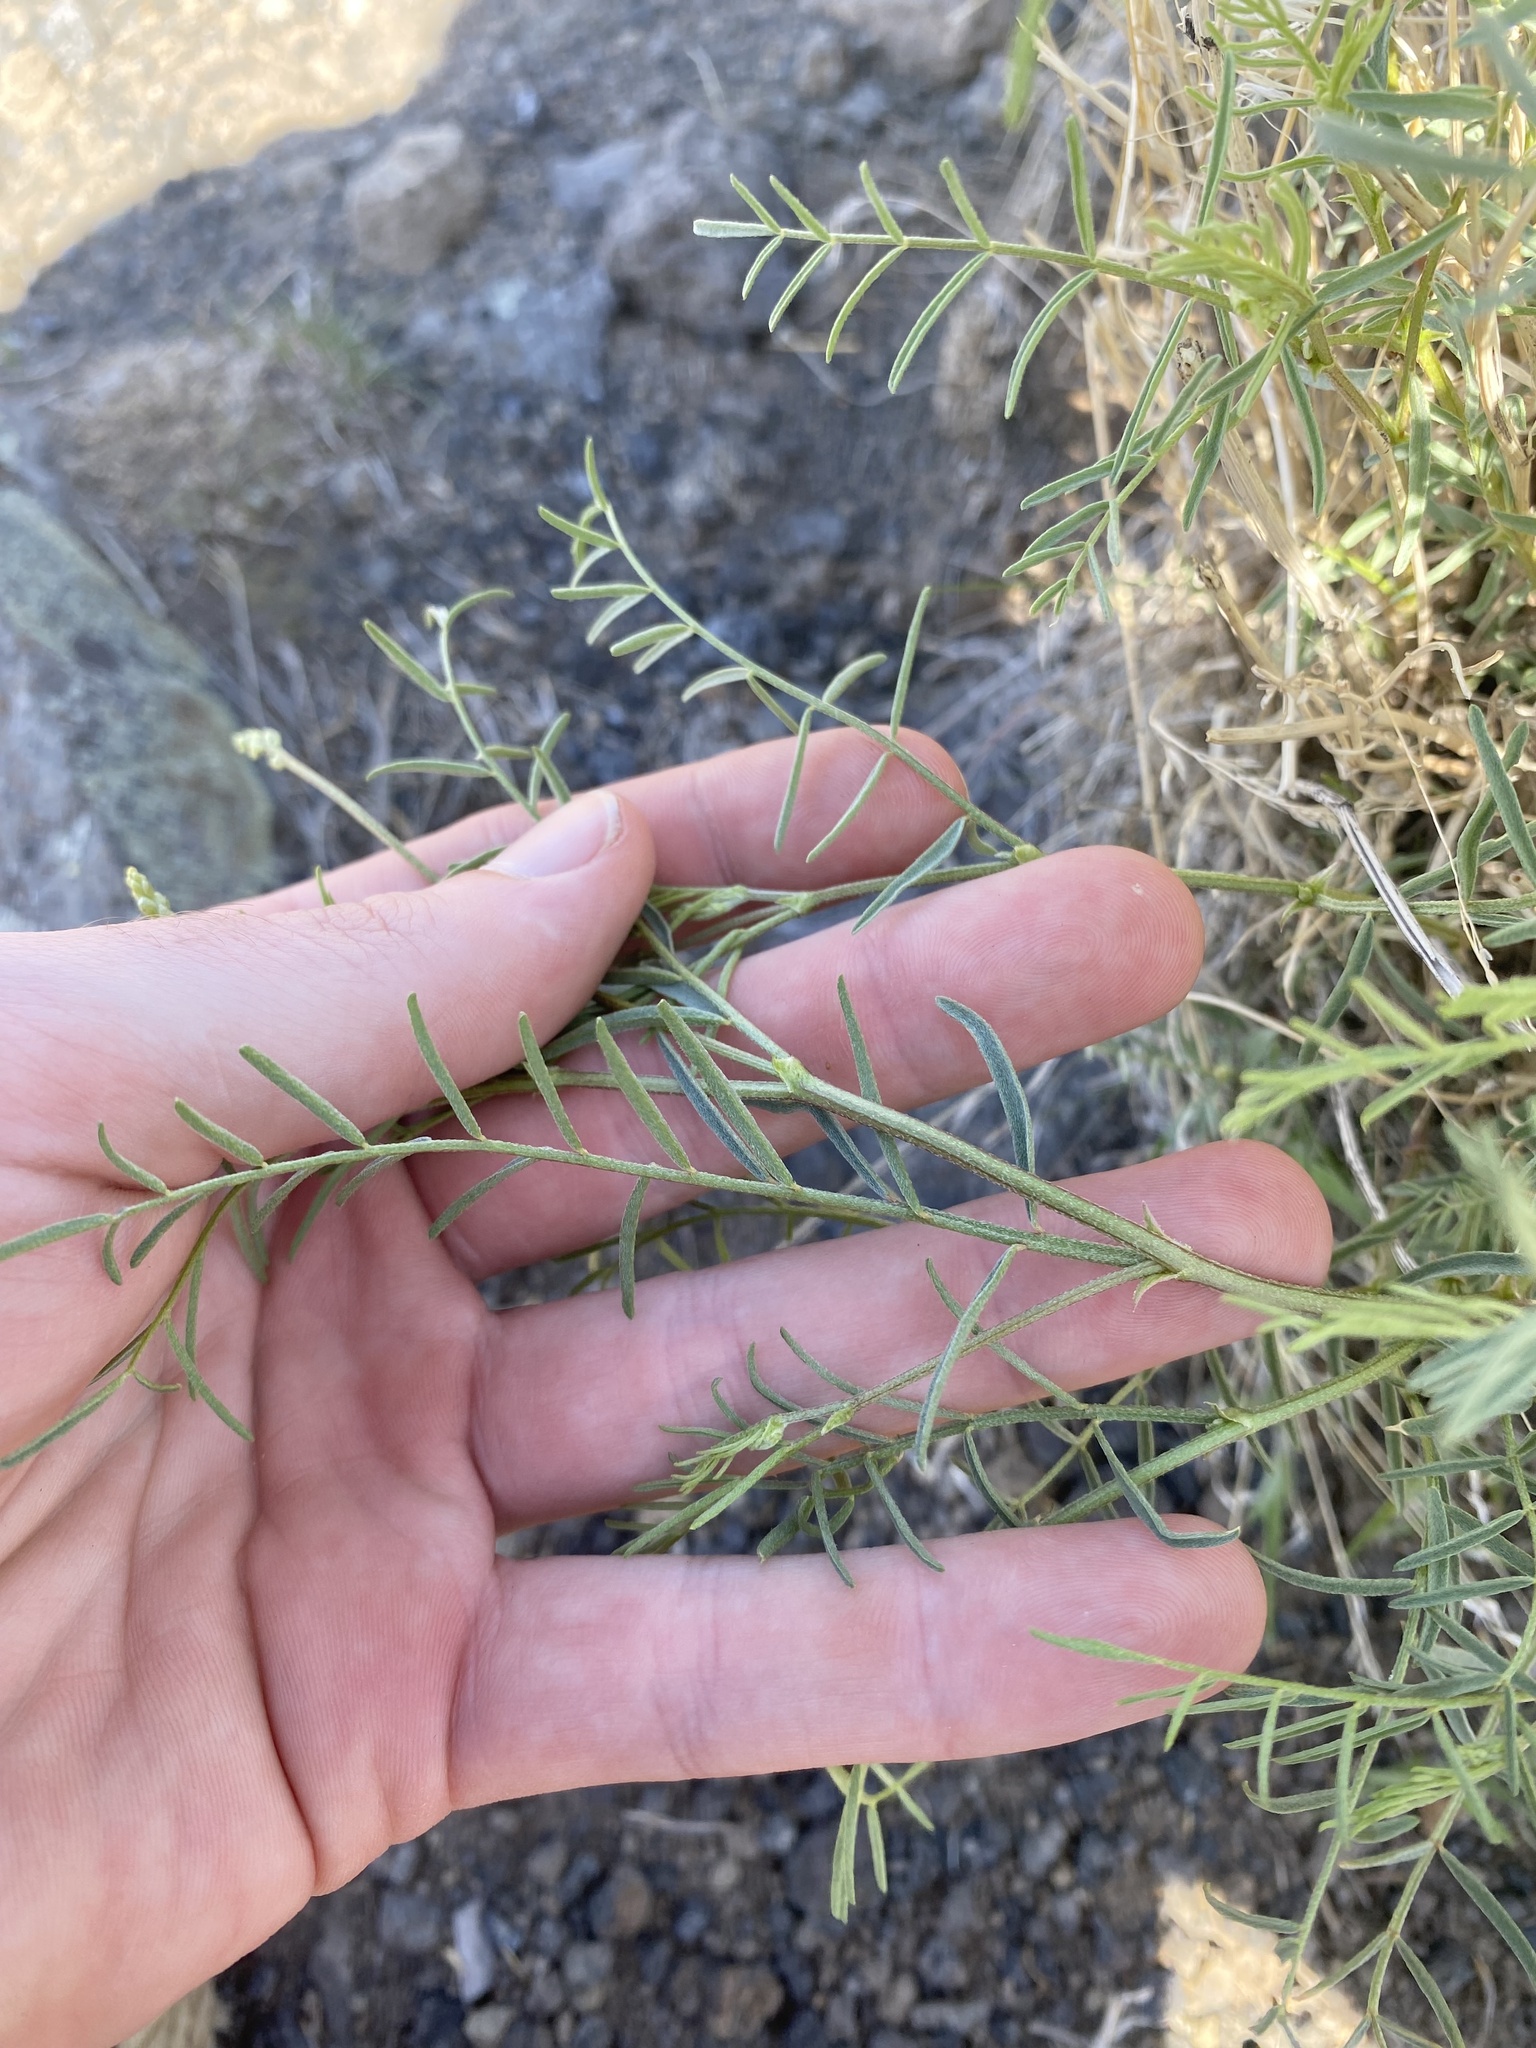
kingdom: Plantae
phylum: Tracheophyta
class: Magnoliopsida
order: Fabales
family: Fabaceae
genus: Astragalus
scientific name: Astragalus filipes
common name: Basalt milk-vetch
